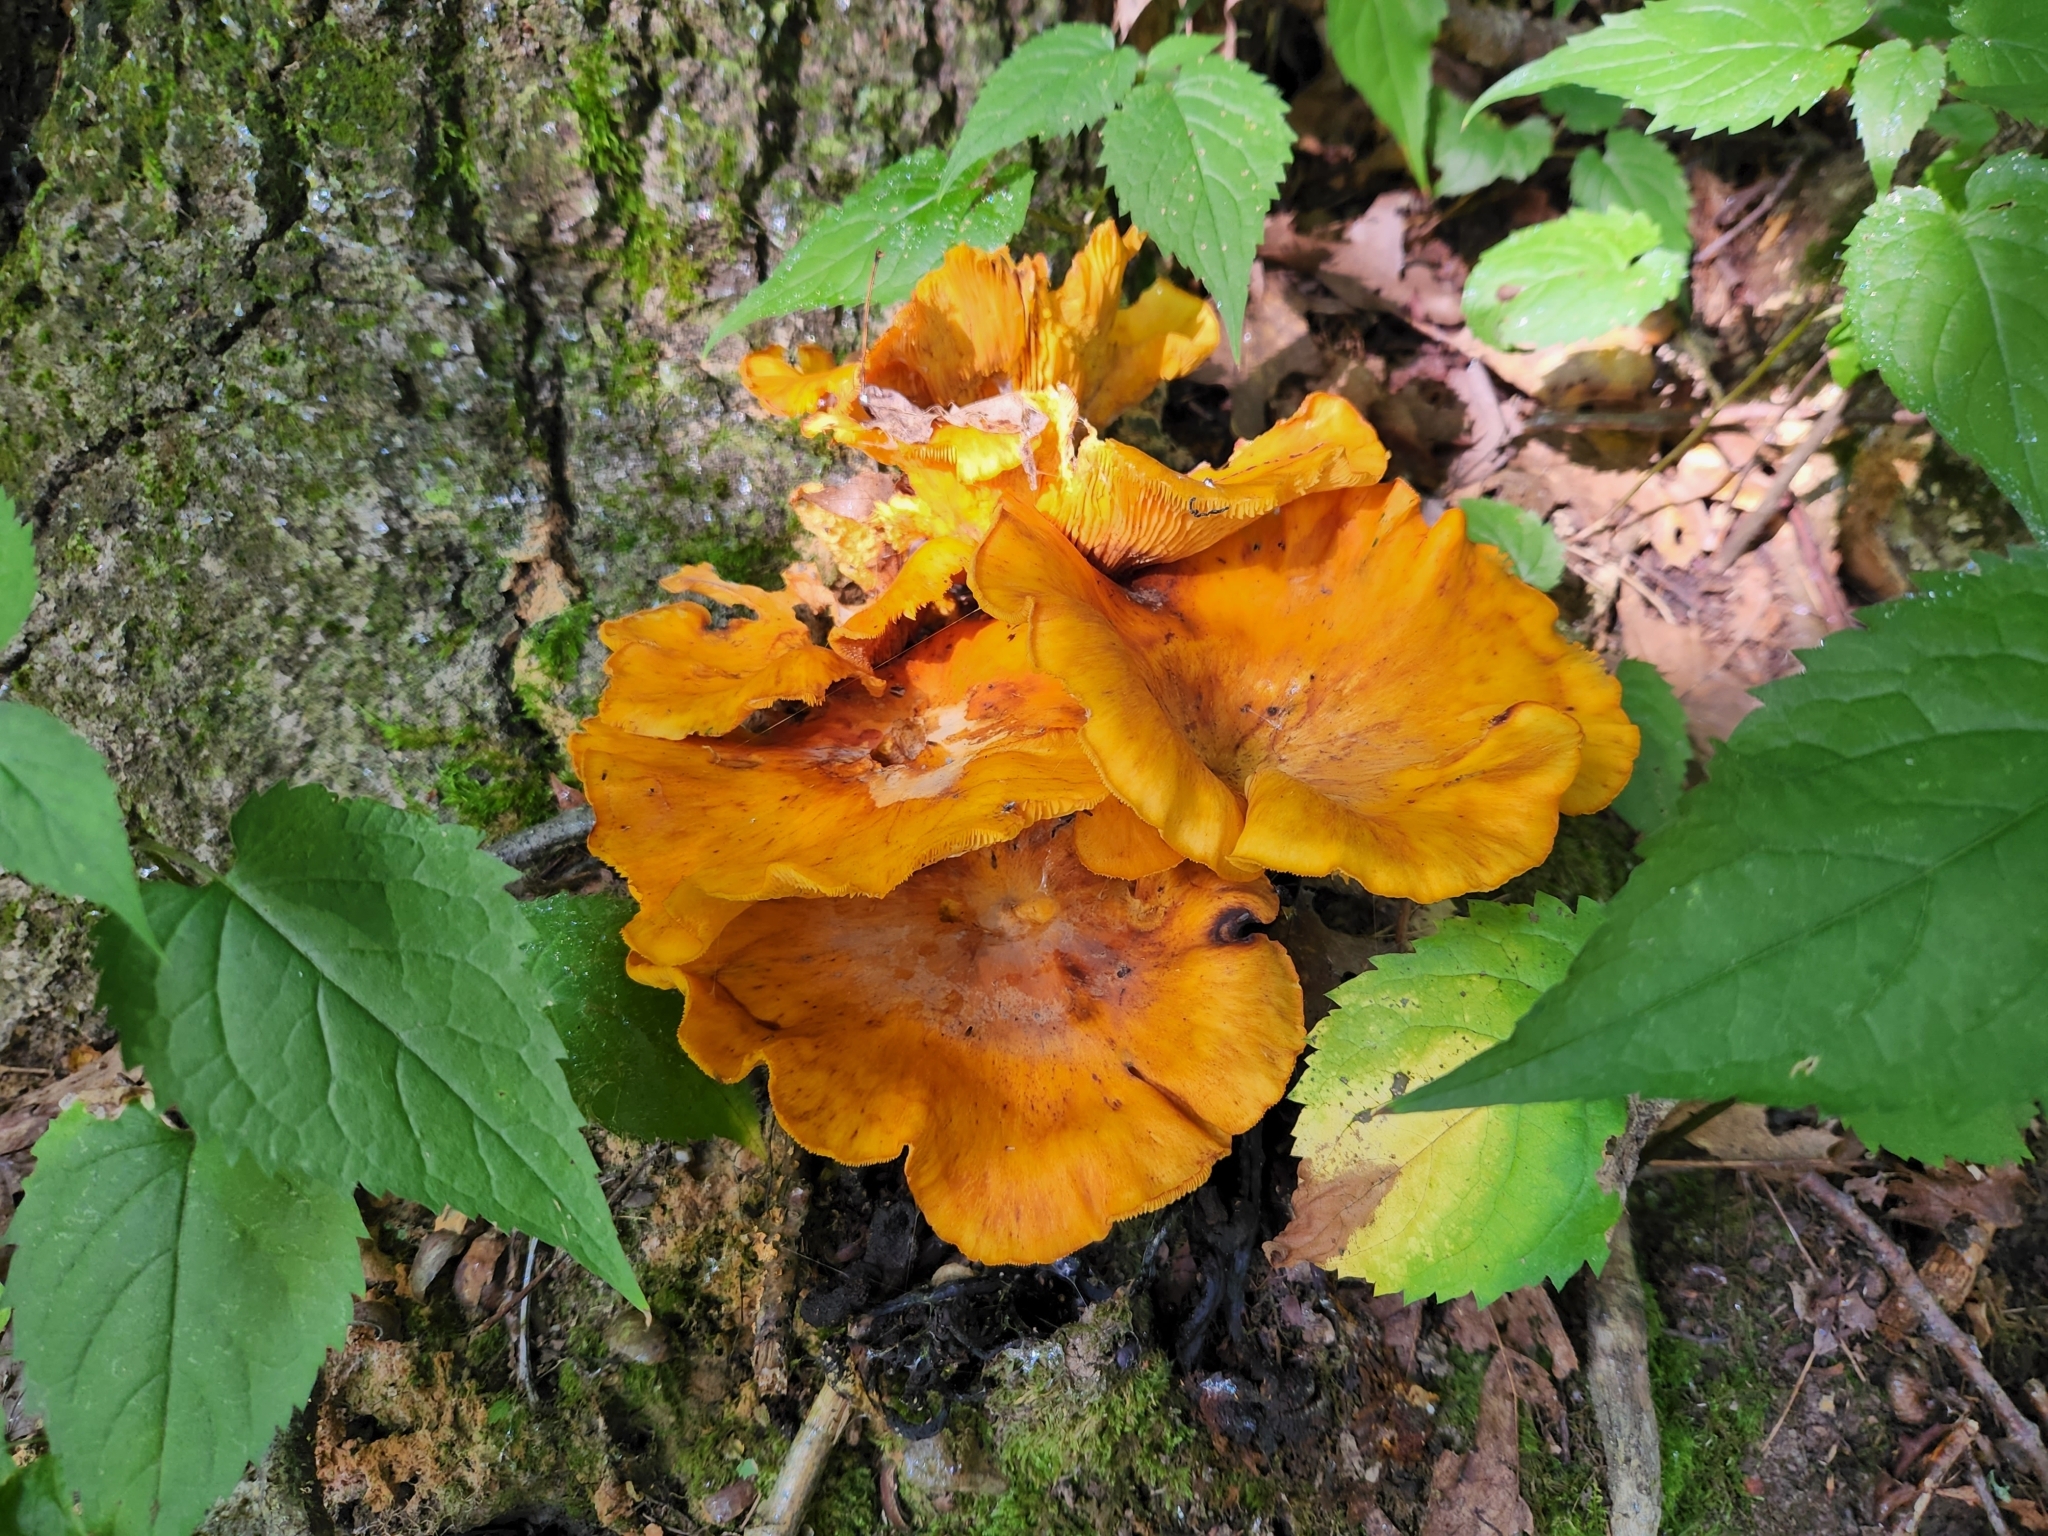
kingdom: Fungi
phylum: Basidiomycota
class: Agaricomycetes
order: Agaricales
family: Omphalotaceae
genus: Omphalotus
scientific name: Omphalotus illudens
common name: Jack o lantern
